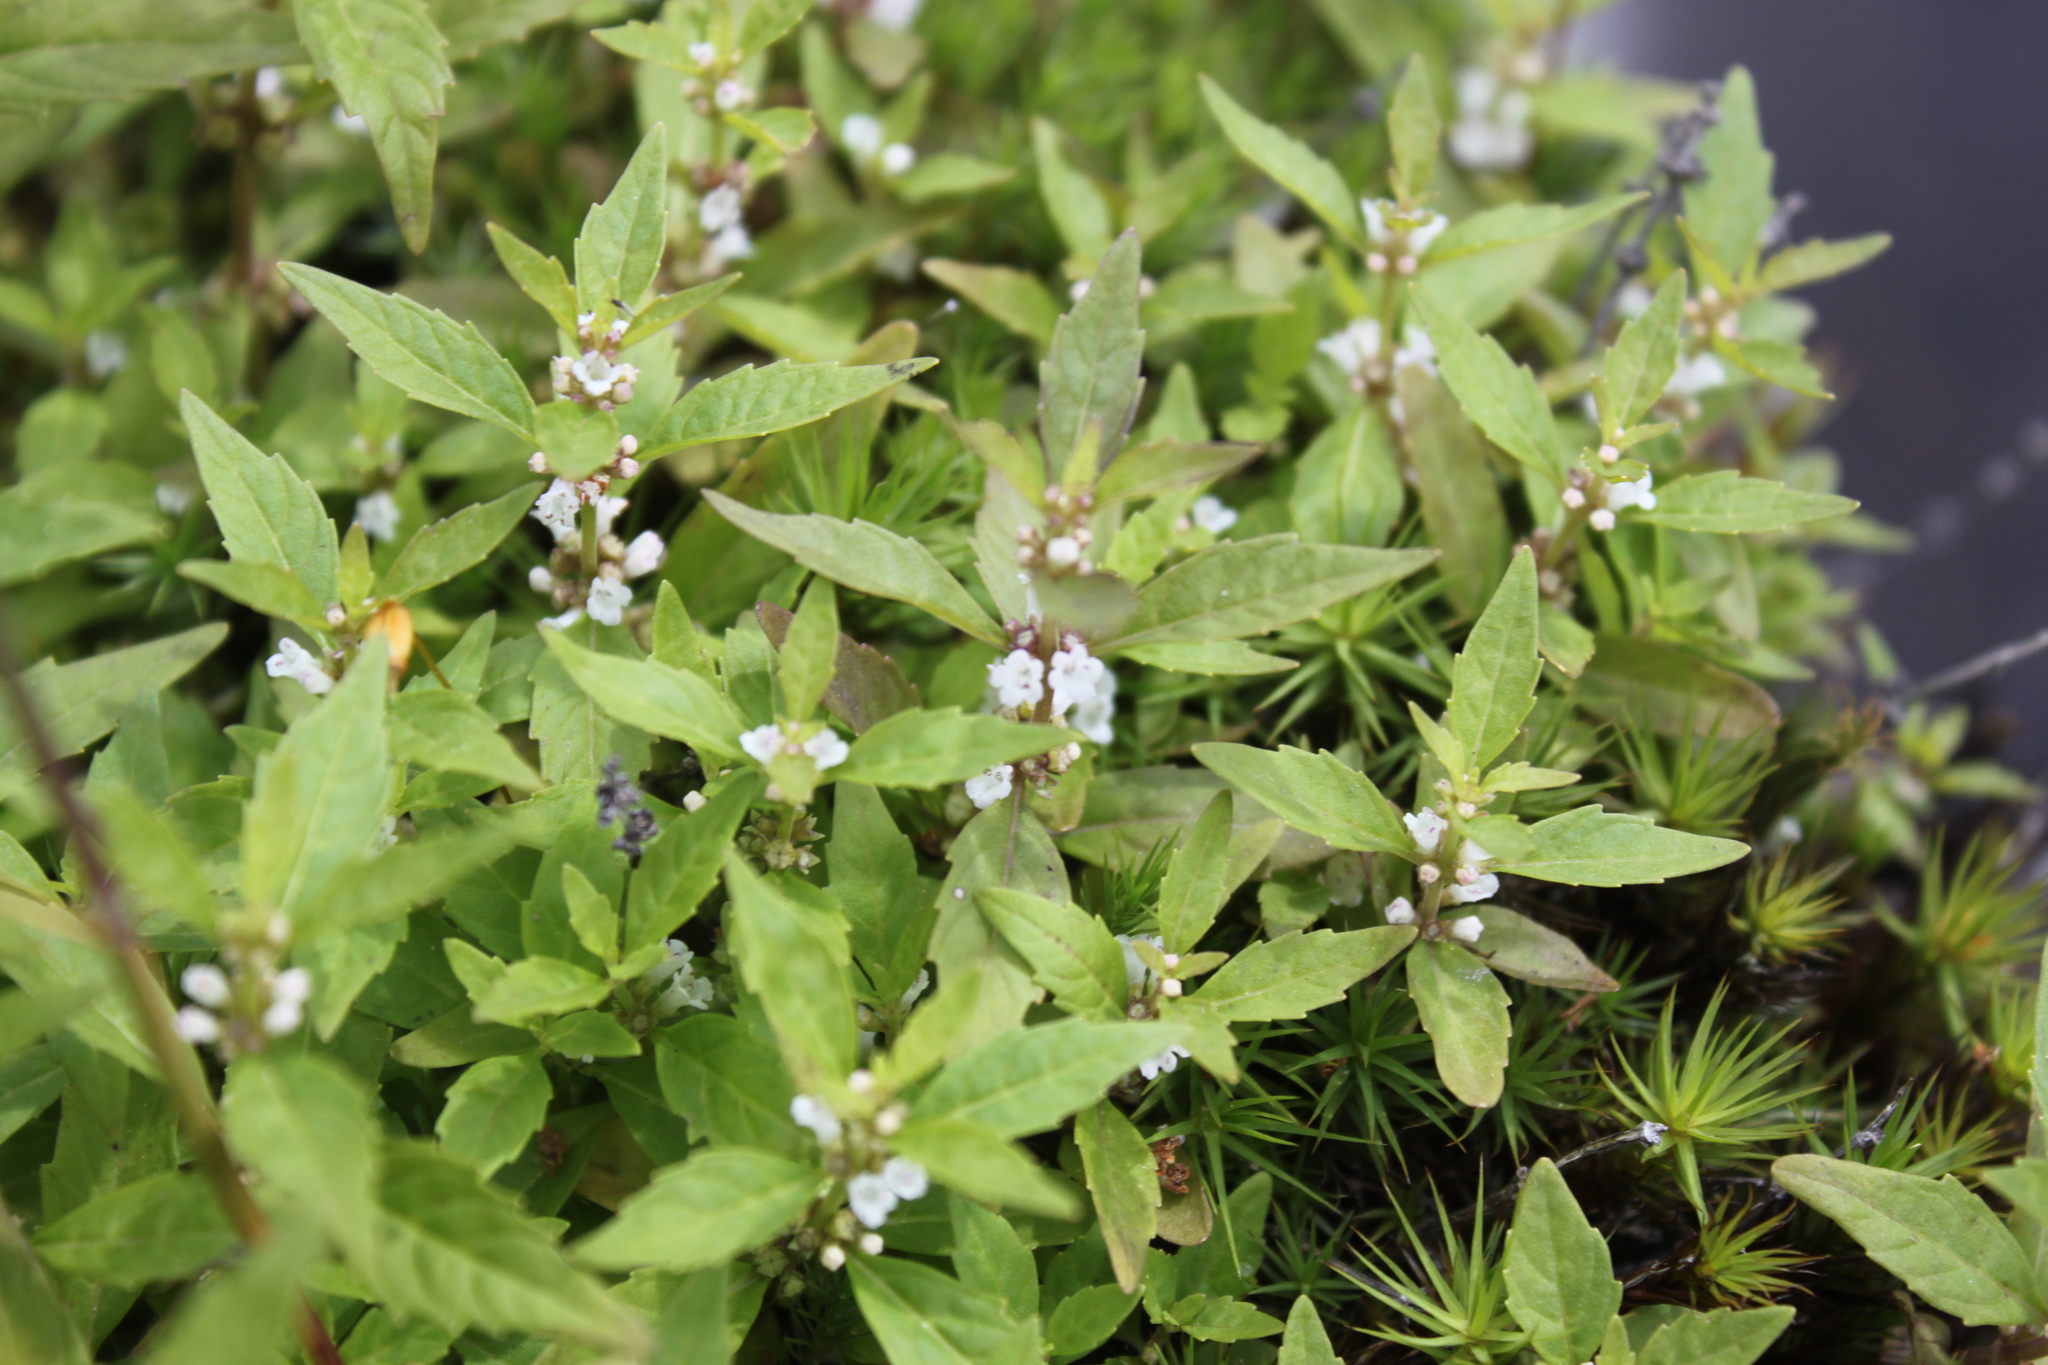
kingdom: Plantae
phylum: Tracheophyta
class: Magnoliopsida
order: Lamiales
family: Lamiaceae
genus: Lycopus
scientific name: Lycopus uniflorus
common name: Northern bugleweed
